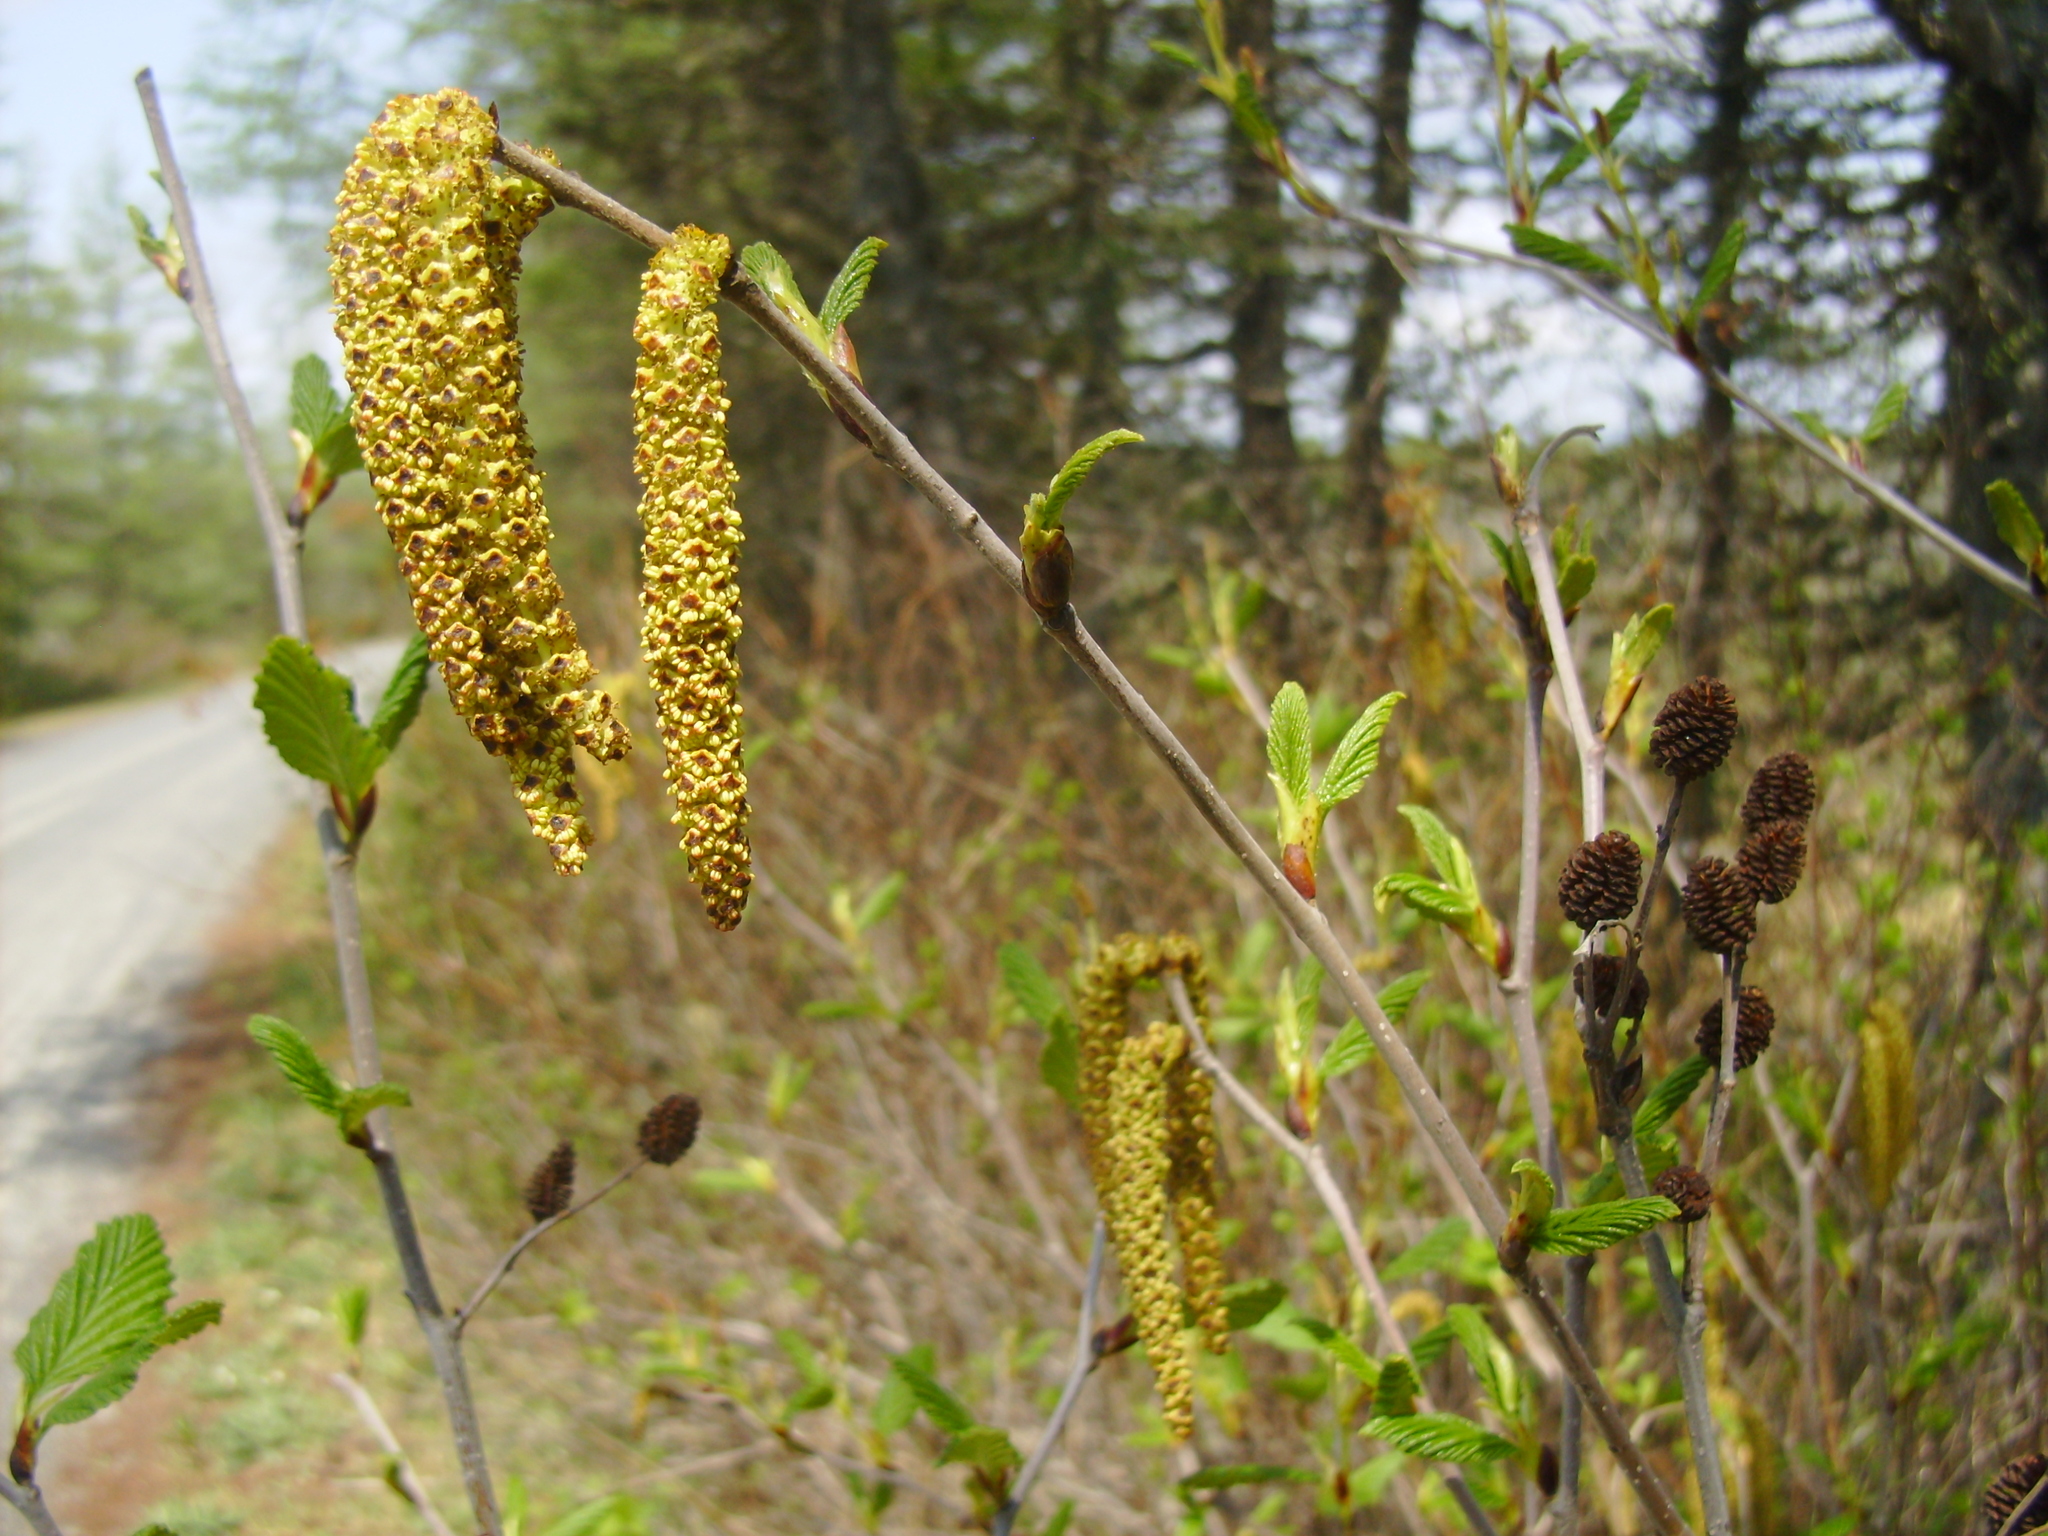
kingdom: Plantae
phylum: Tracheophyta
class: Magnoliopsida
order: Fagales
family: Betulaceae
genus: Alnus
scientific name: Alnus alnobetula
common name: Green alder
